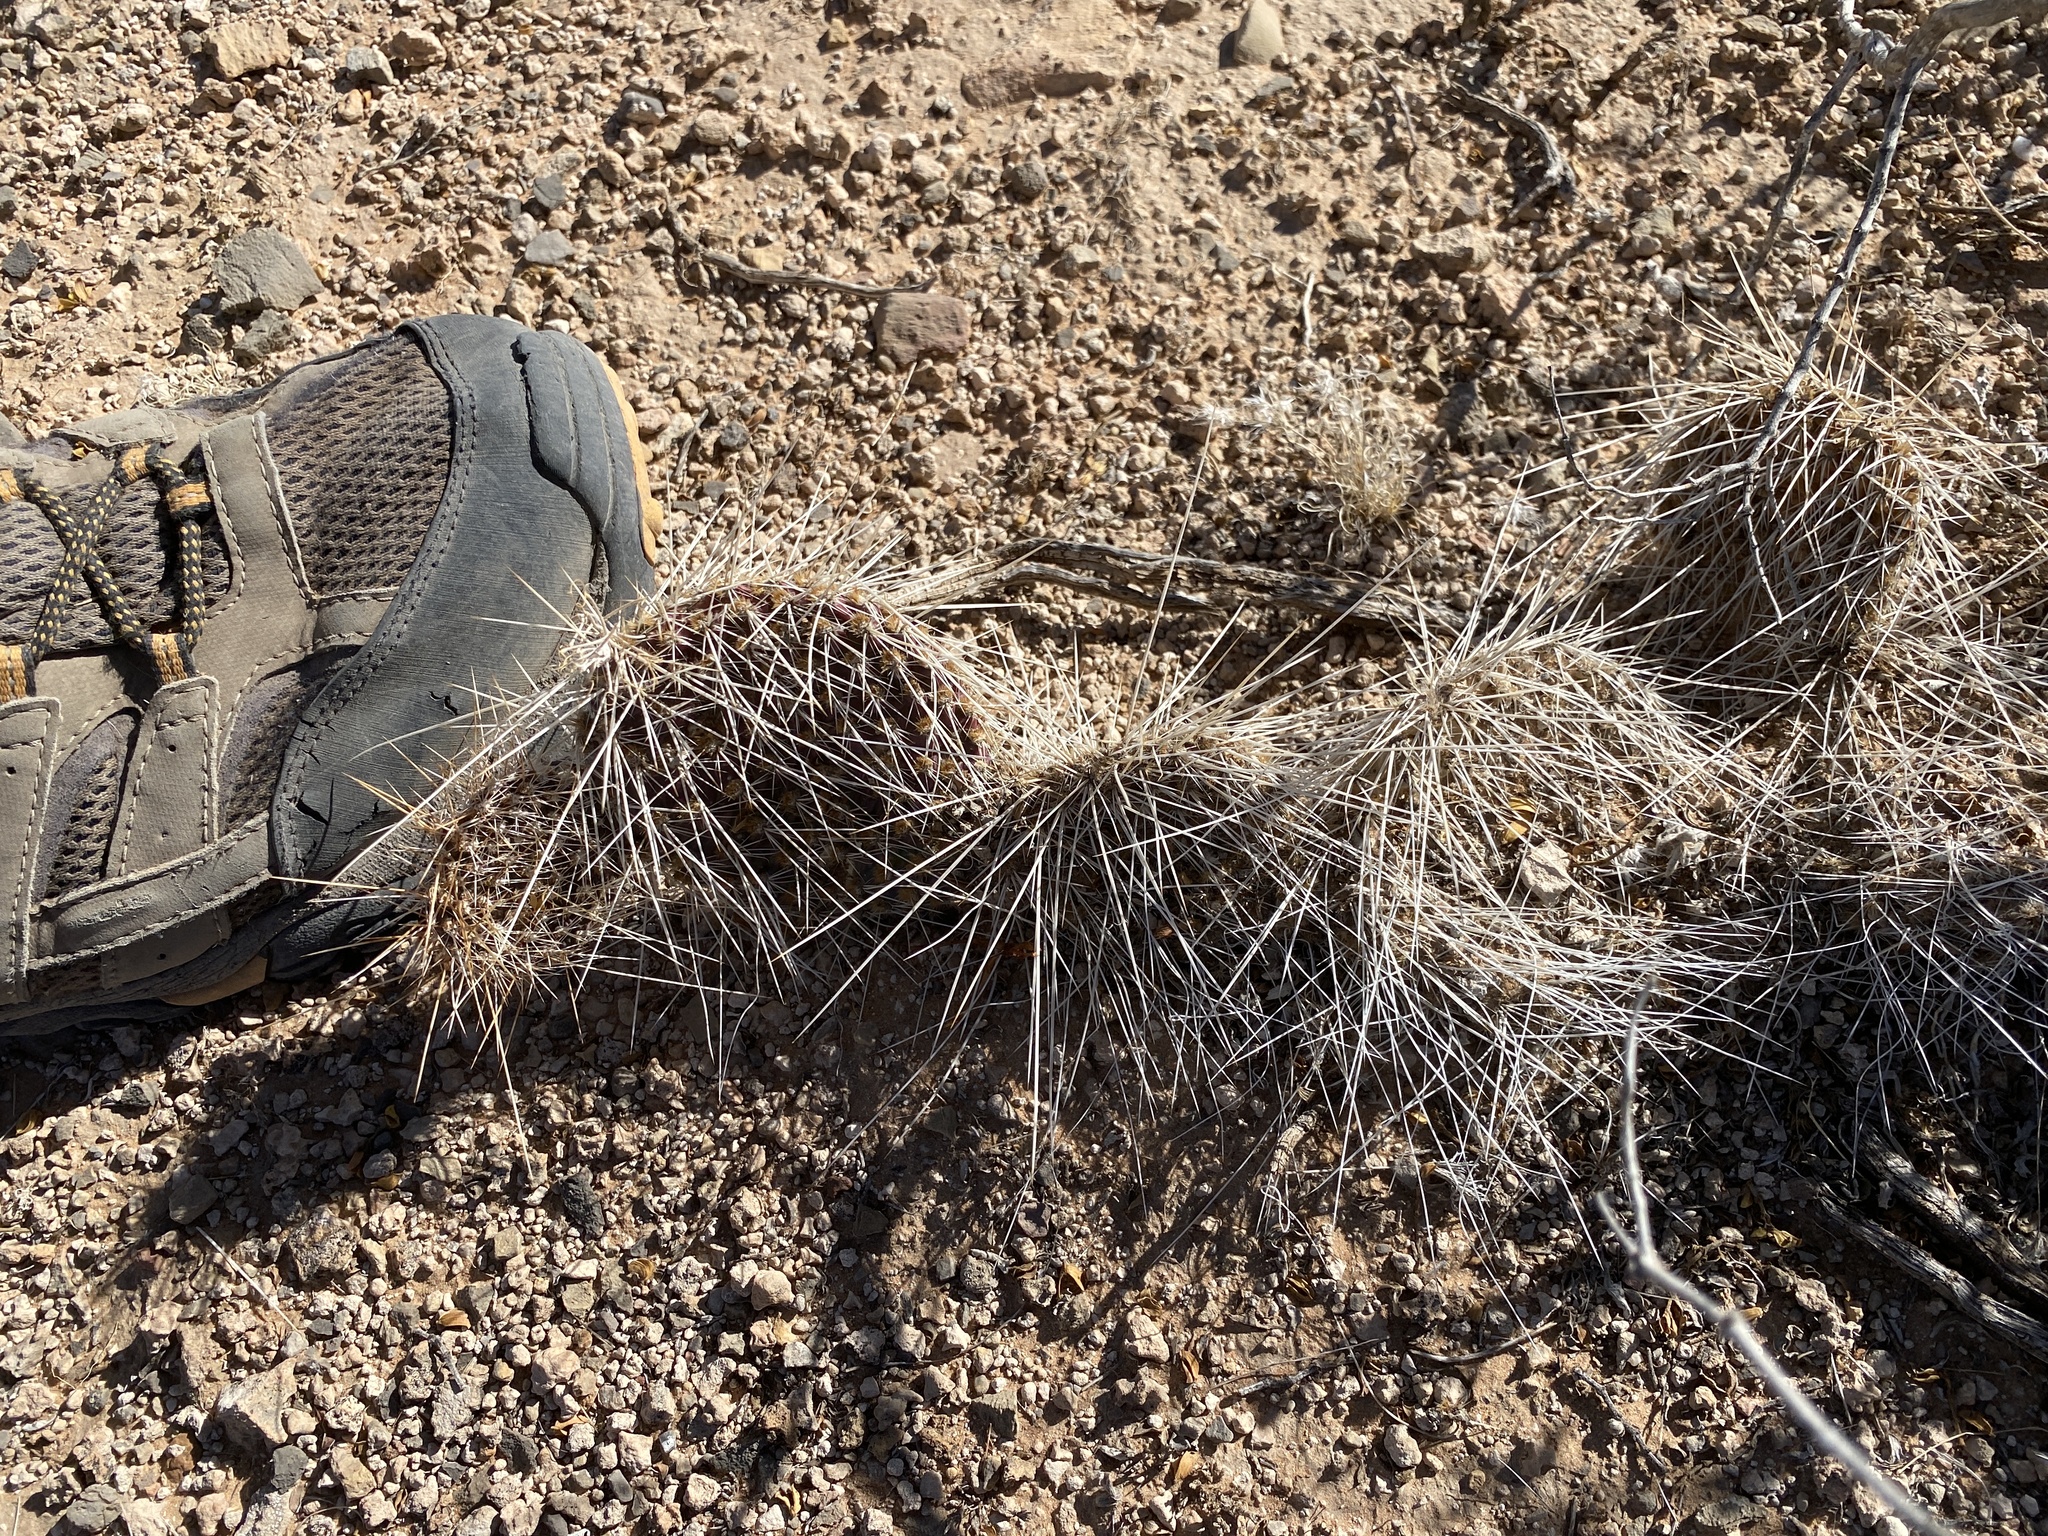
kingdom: Plantae
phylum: Tracheophyta
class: Magnoliopsida
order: Caryophyllales
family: Cactaceae
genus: Opuntia
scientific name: Opuntia polyacantha
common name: Plains prickly-pear
